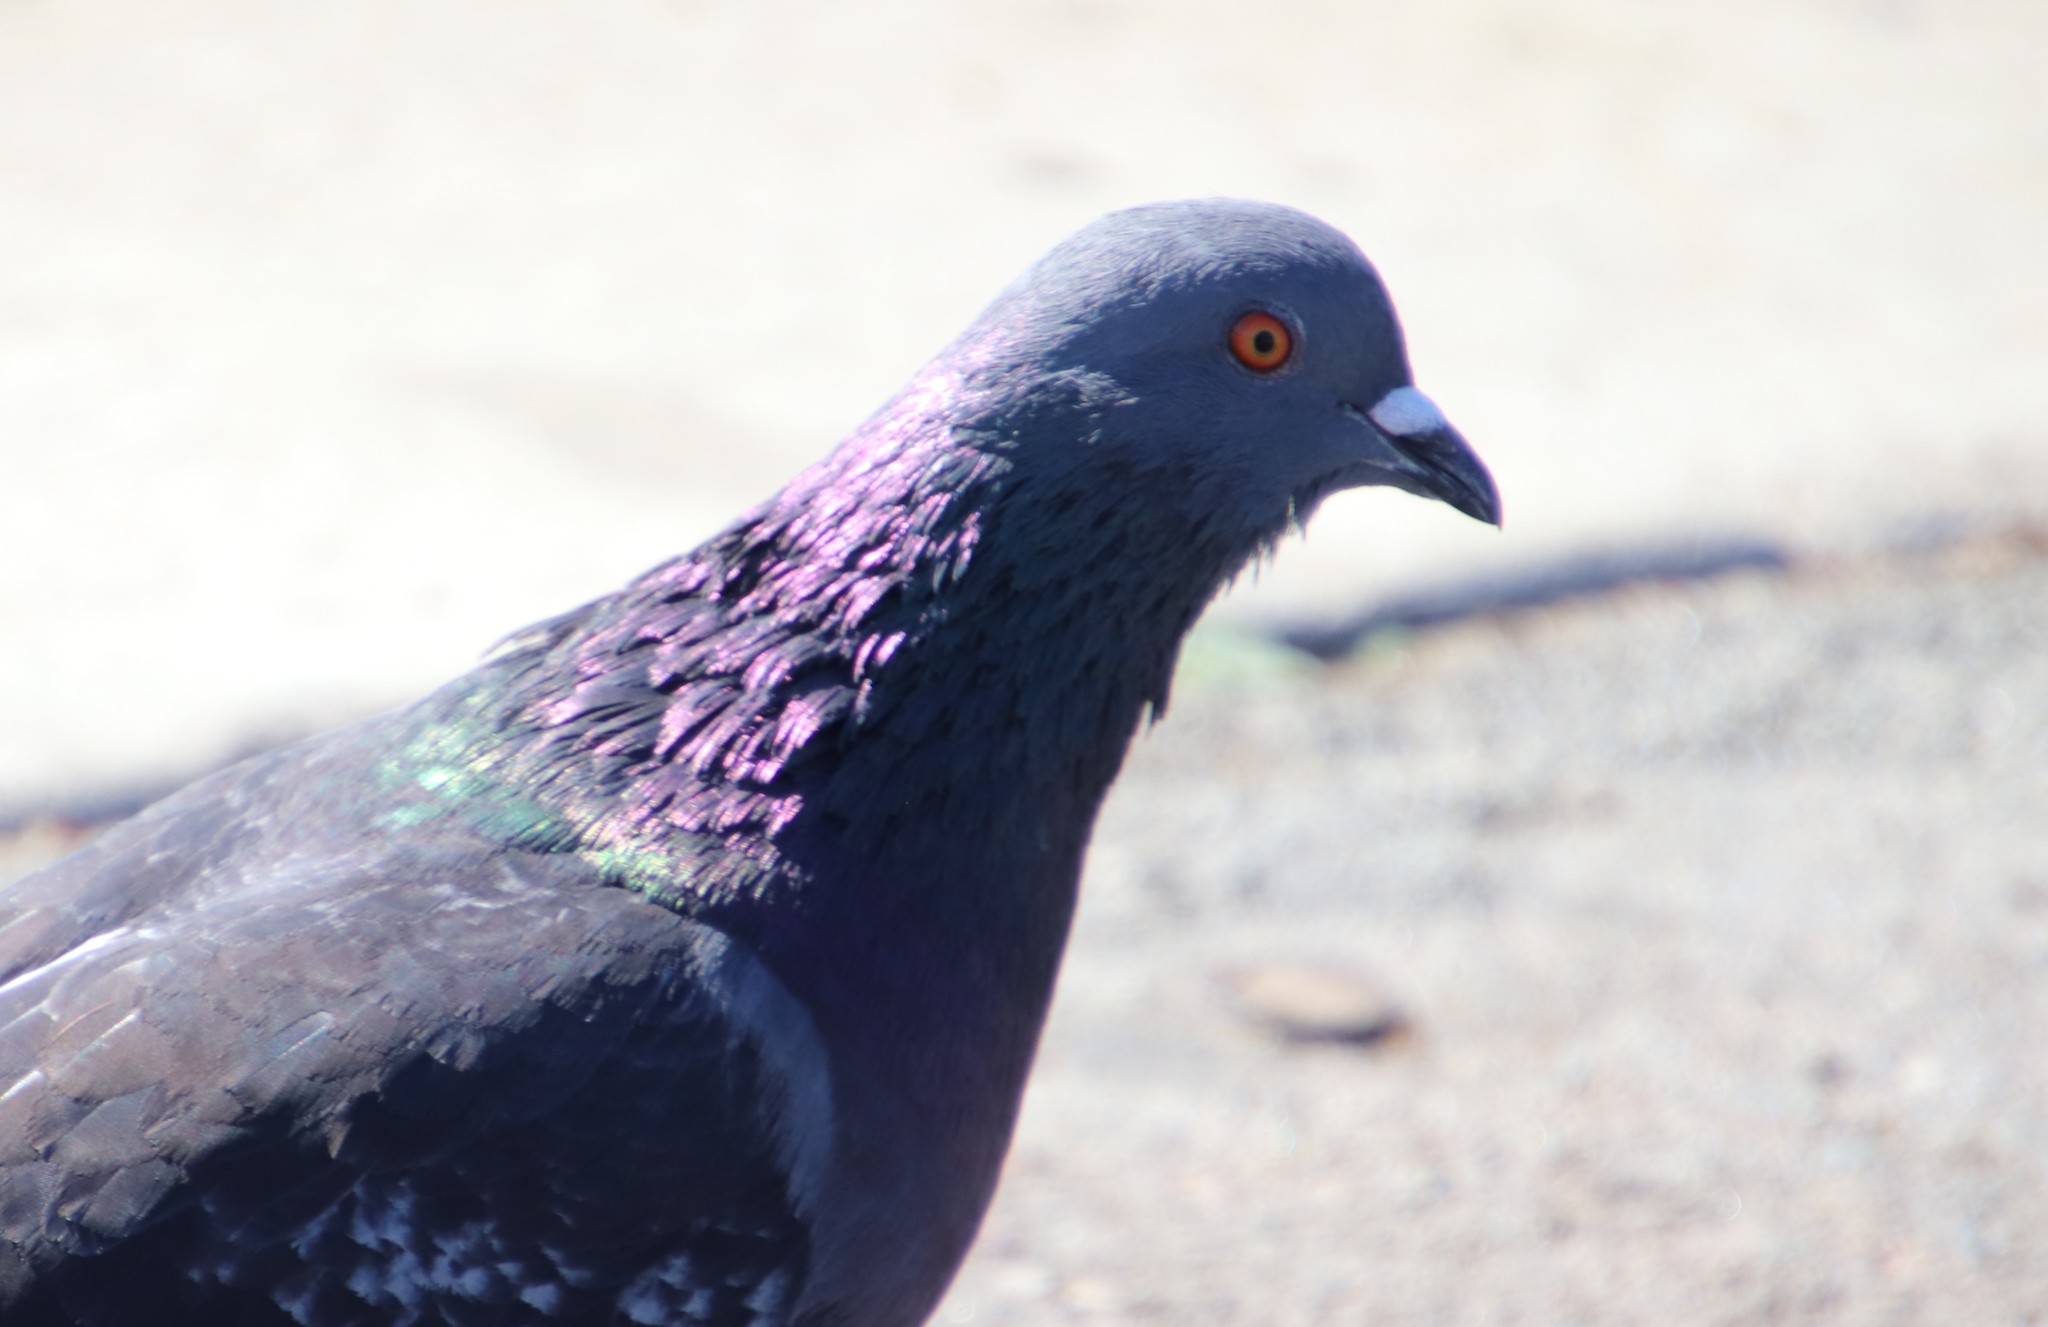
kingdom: Animalia
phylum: Chordata
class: Aves
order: Columbiformes
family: Columbidae
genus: Columba
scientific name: Columba livia
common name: Rock pigeon
